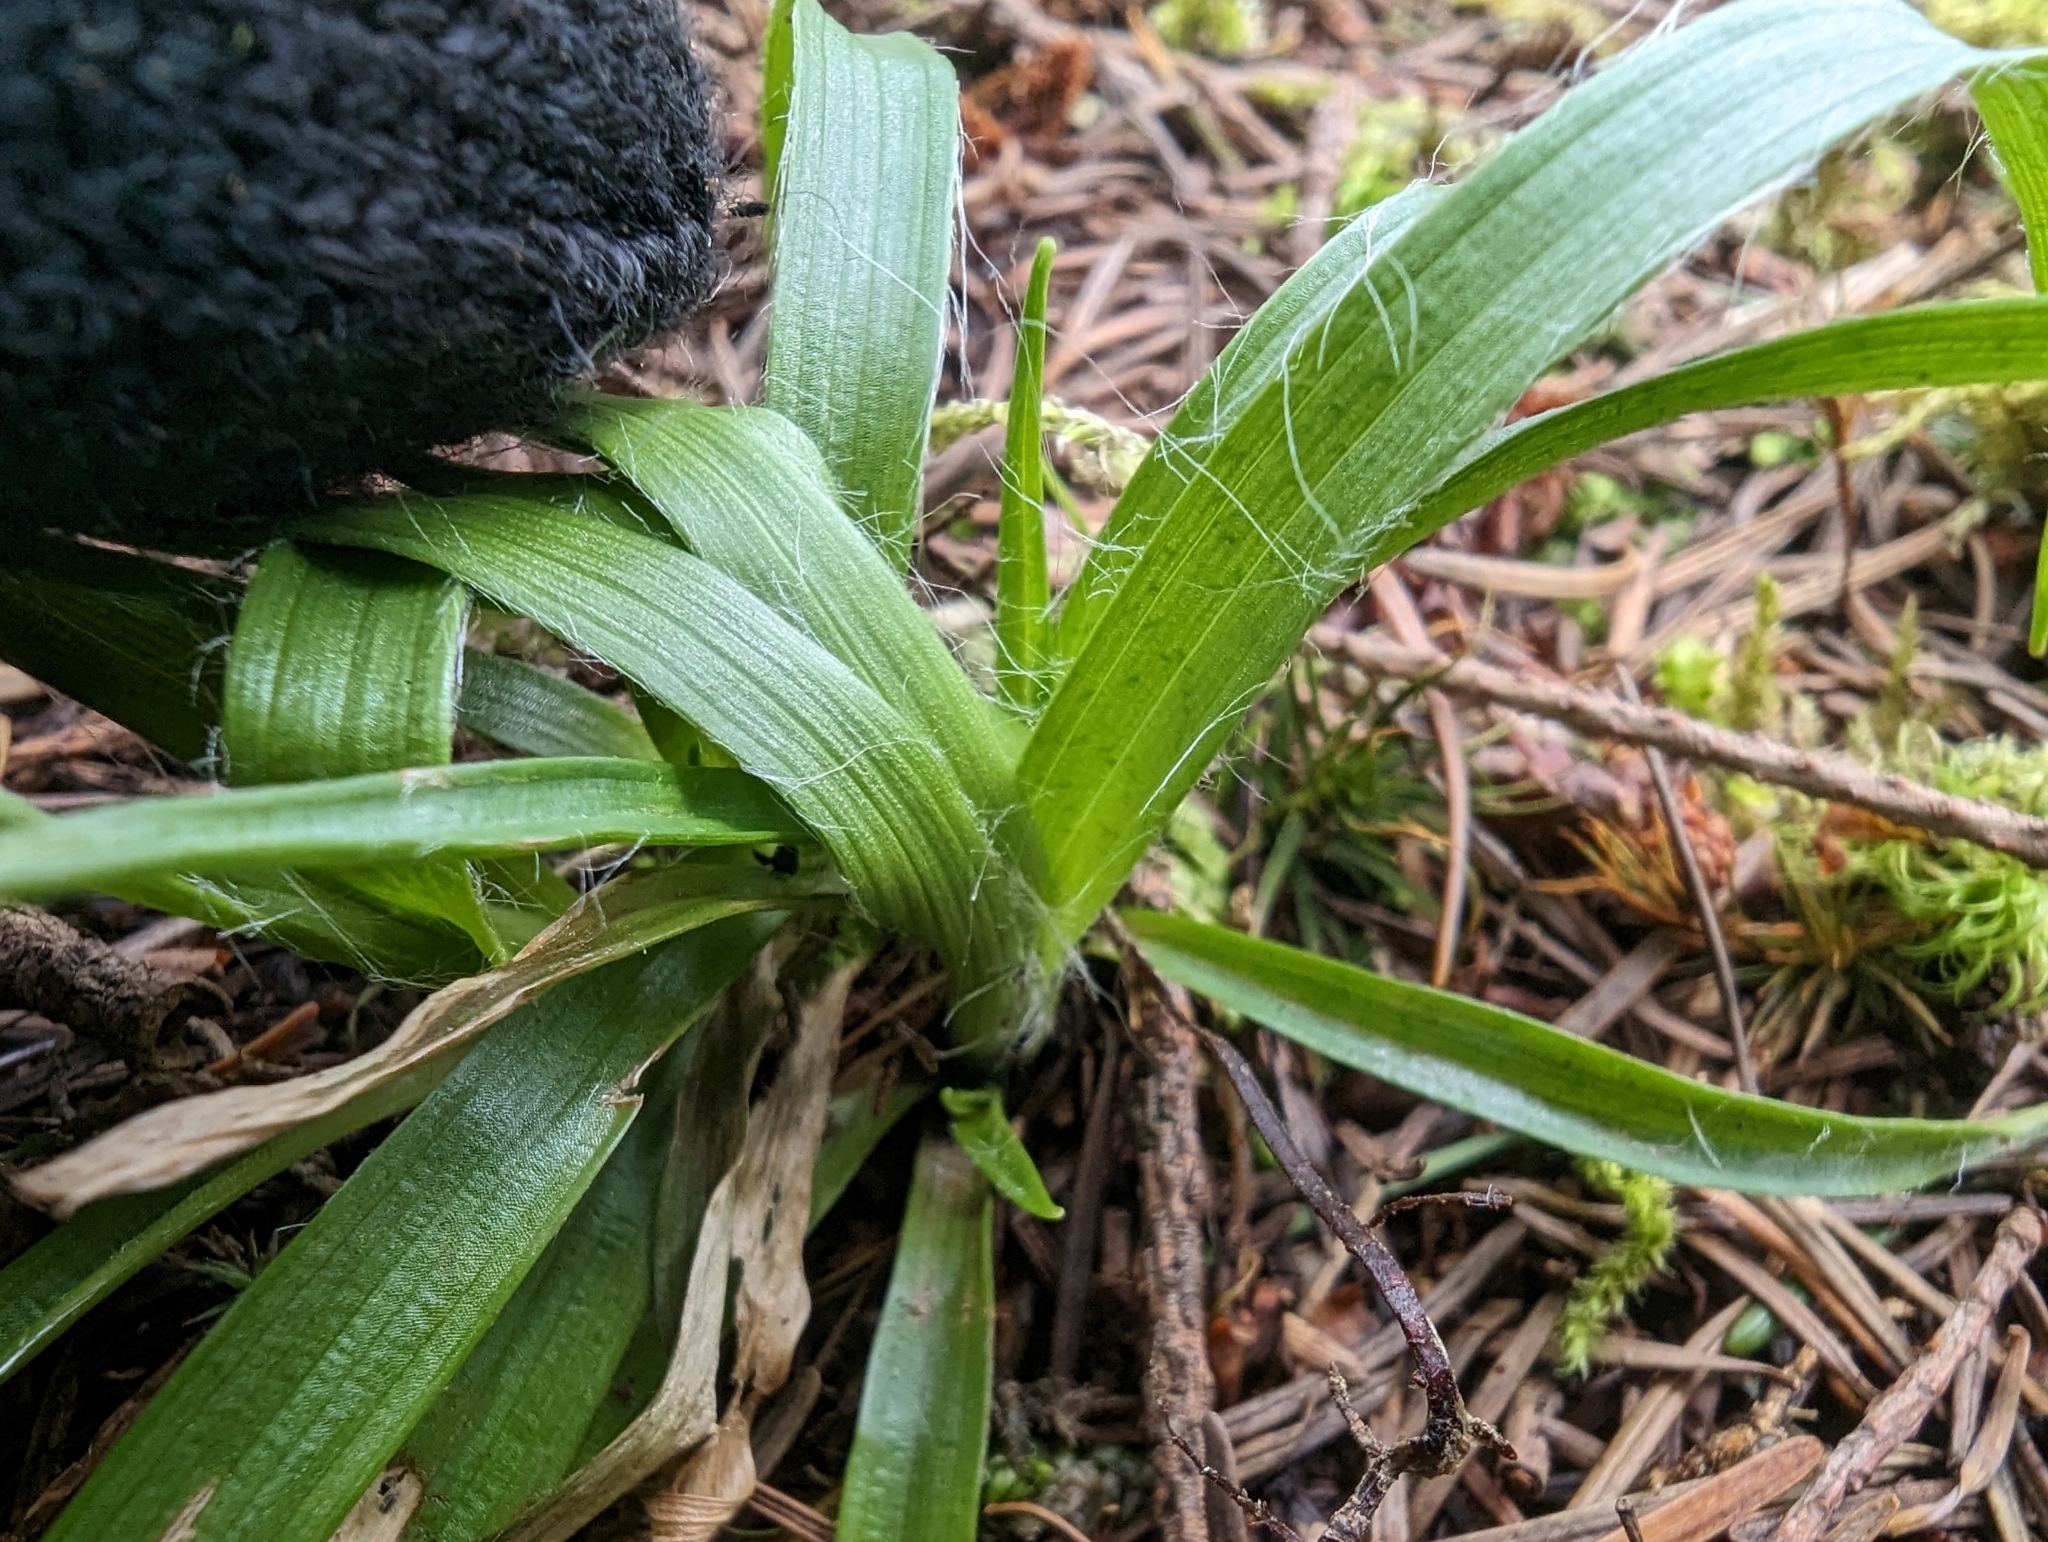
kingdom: Plantae
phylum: Tracheophyta
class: Liliopsida
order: Poales
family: Juncaceae
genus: Luzula
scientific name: Luzula comosa
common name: Pacific woodrush
